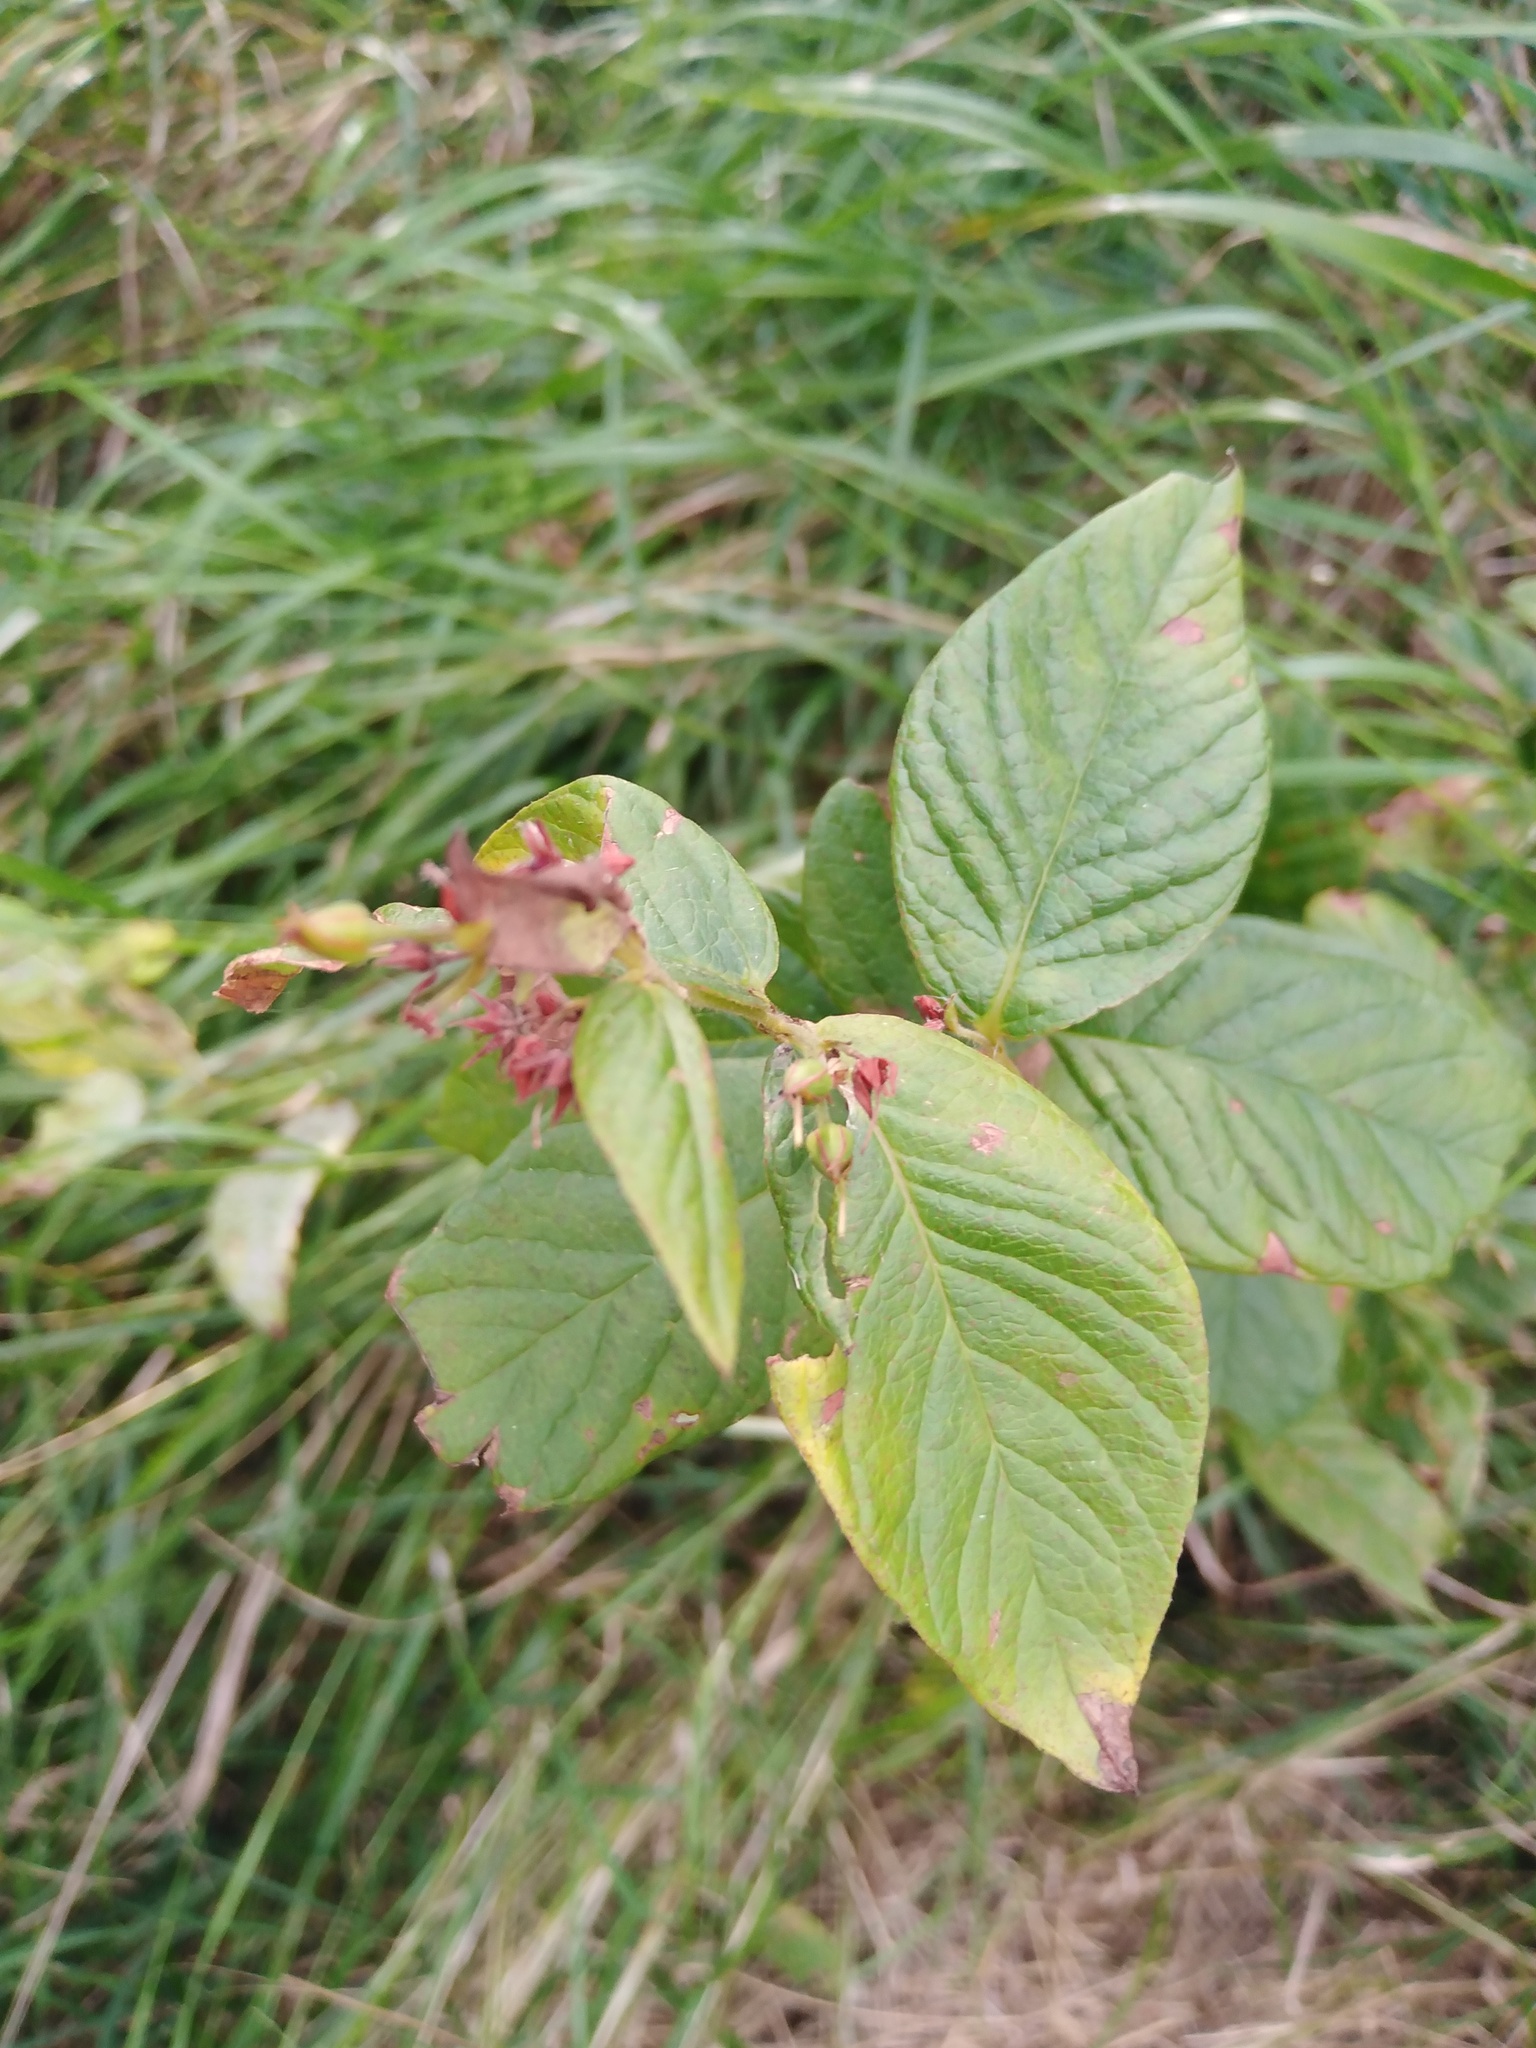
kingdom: Plantae
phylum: Tracheophyta
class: Magnoliopsida
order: Ericales
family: Primulaceae
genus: Lysimachia
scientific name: Lysimachia vulgaris
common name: Yellow loosestrife
